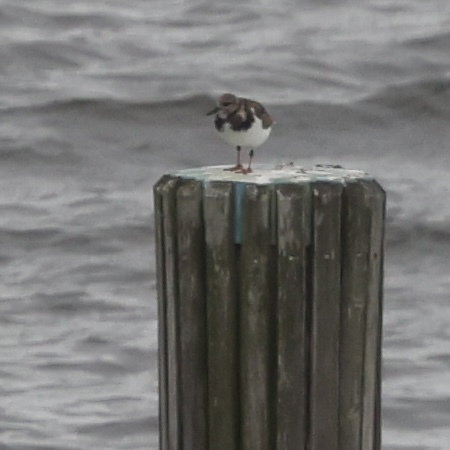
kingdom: Animalia
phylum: Chordata
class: Aves
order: Charadriiformes
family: Scolopacidae
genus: Arenaria
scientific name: Arenaria interpres
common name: Ruddy turnstone
